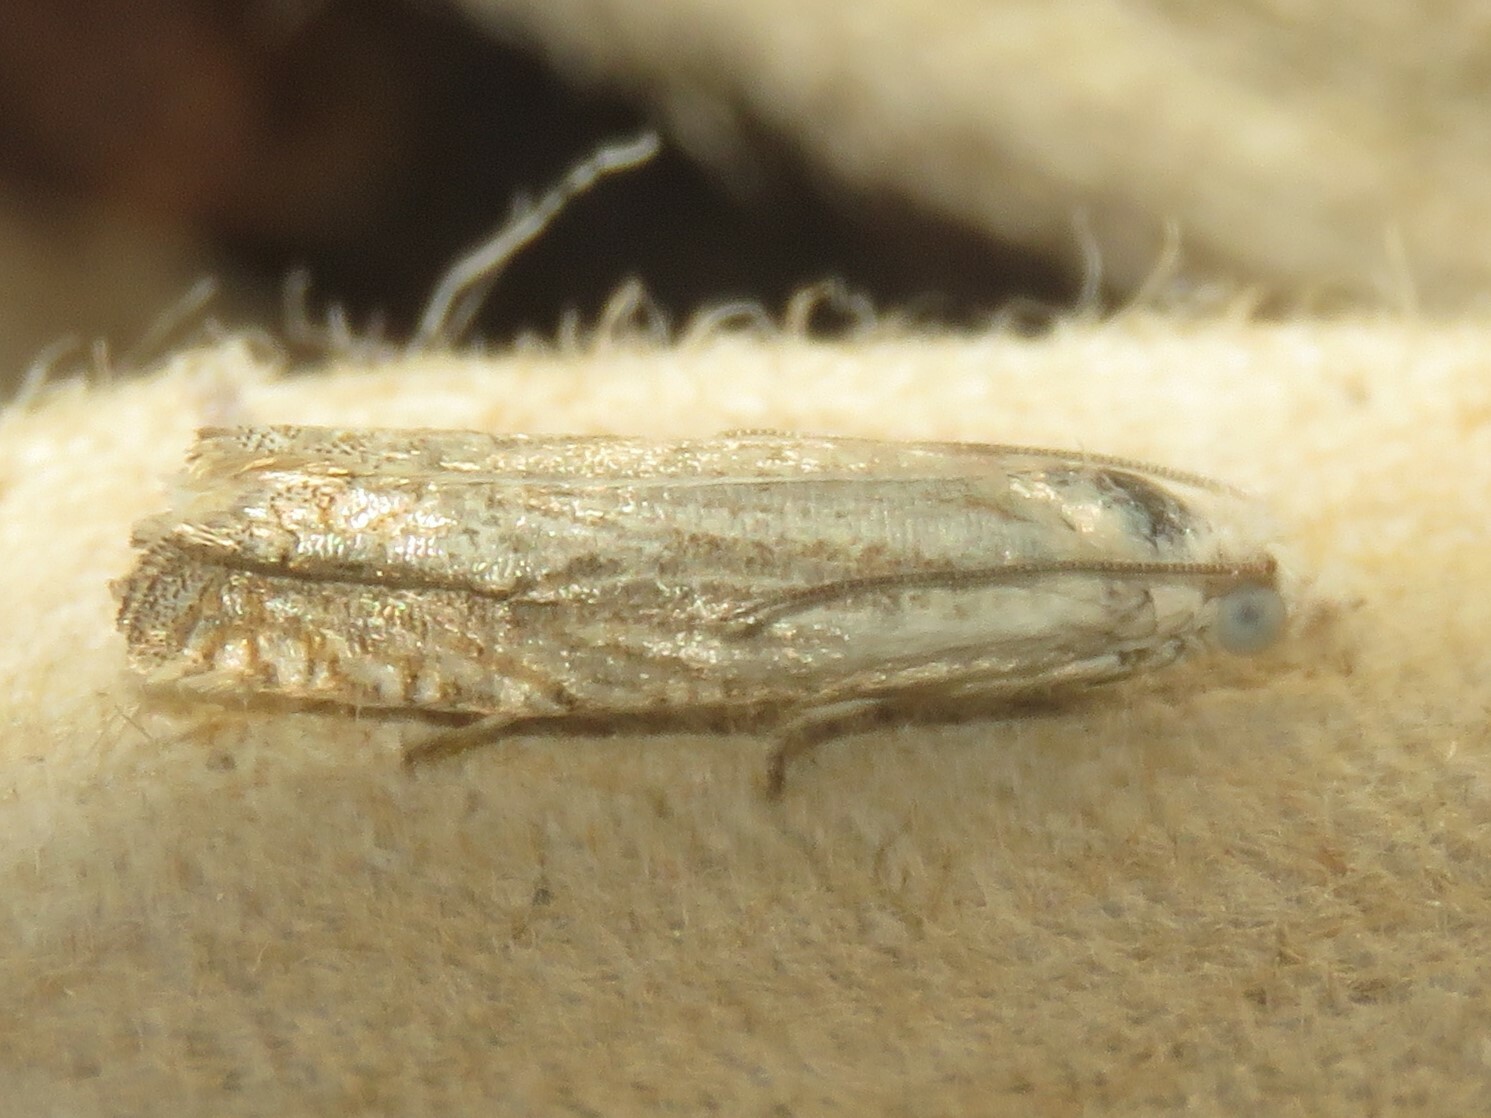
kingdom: Animalia
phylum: Arthropoda
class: Insecta
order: Lepidoptera
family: Tortricidae
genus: Pelochrista
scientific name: Pelochrista argentialbana
